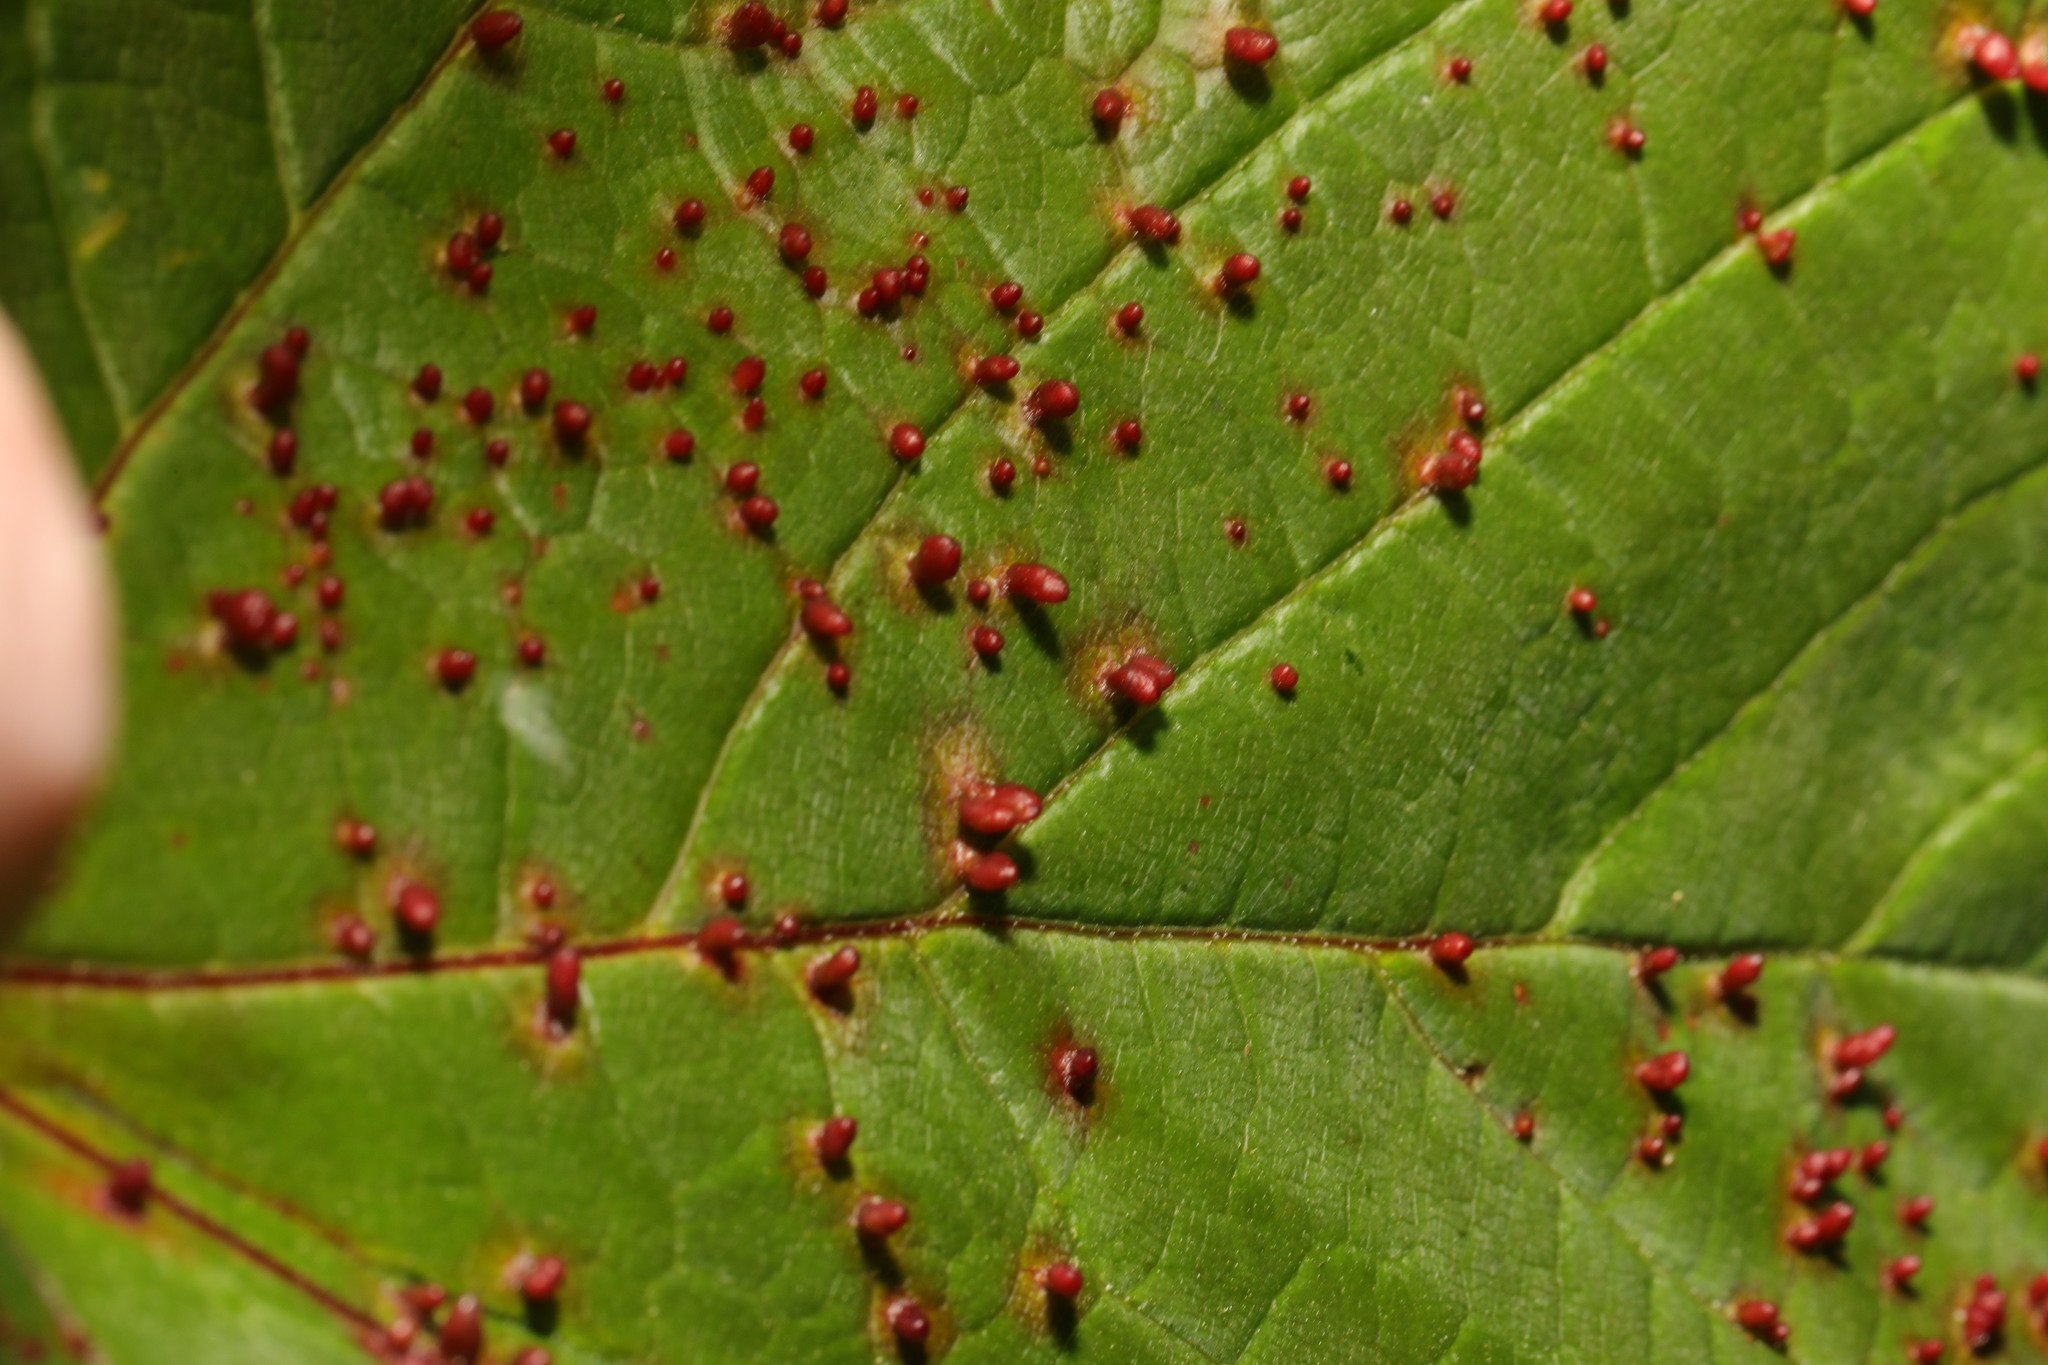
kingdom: Animalia
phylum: Arthropoda
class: Arachnida
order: Trombidiformes
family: Eriophyidae
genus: Aceria
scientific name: Aceria cephaloneus
